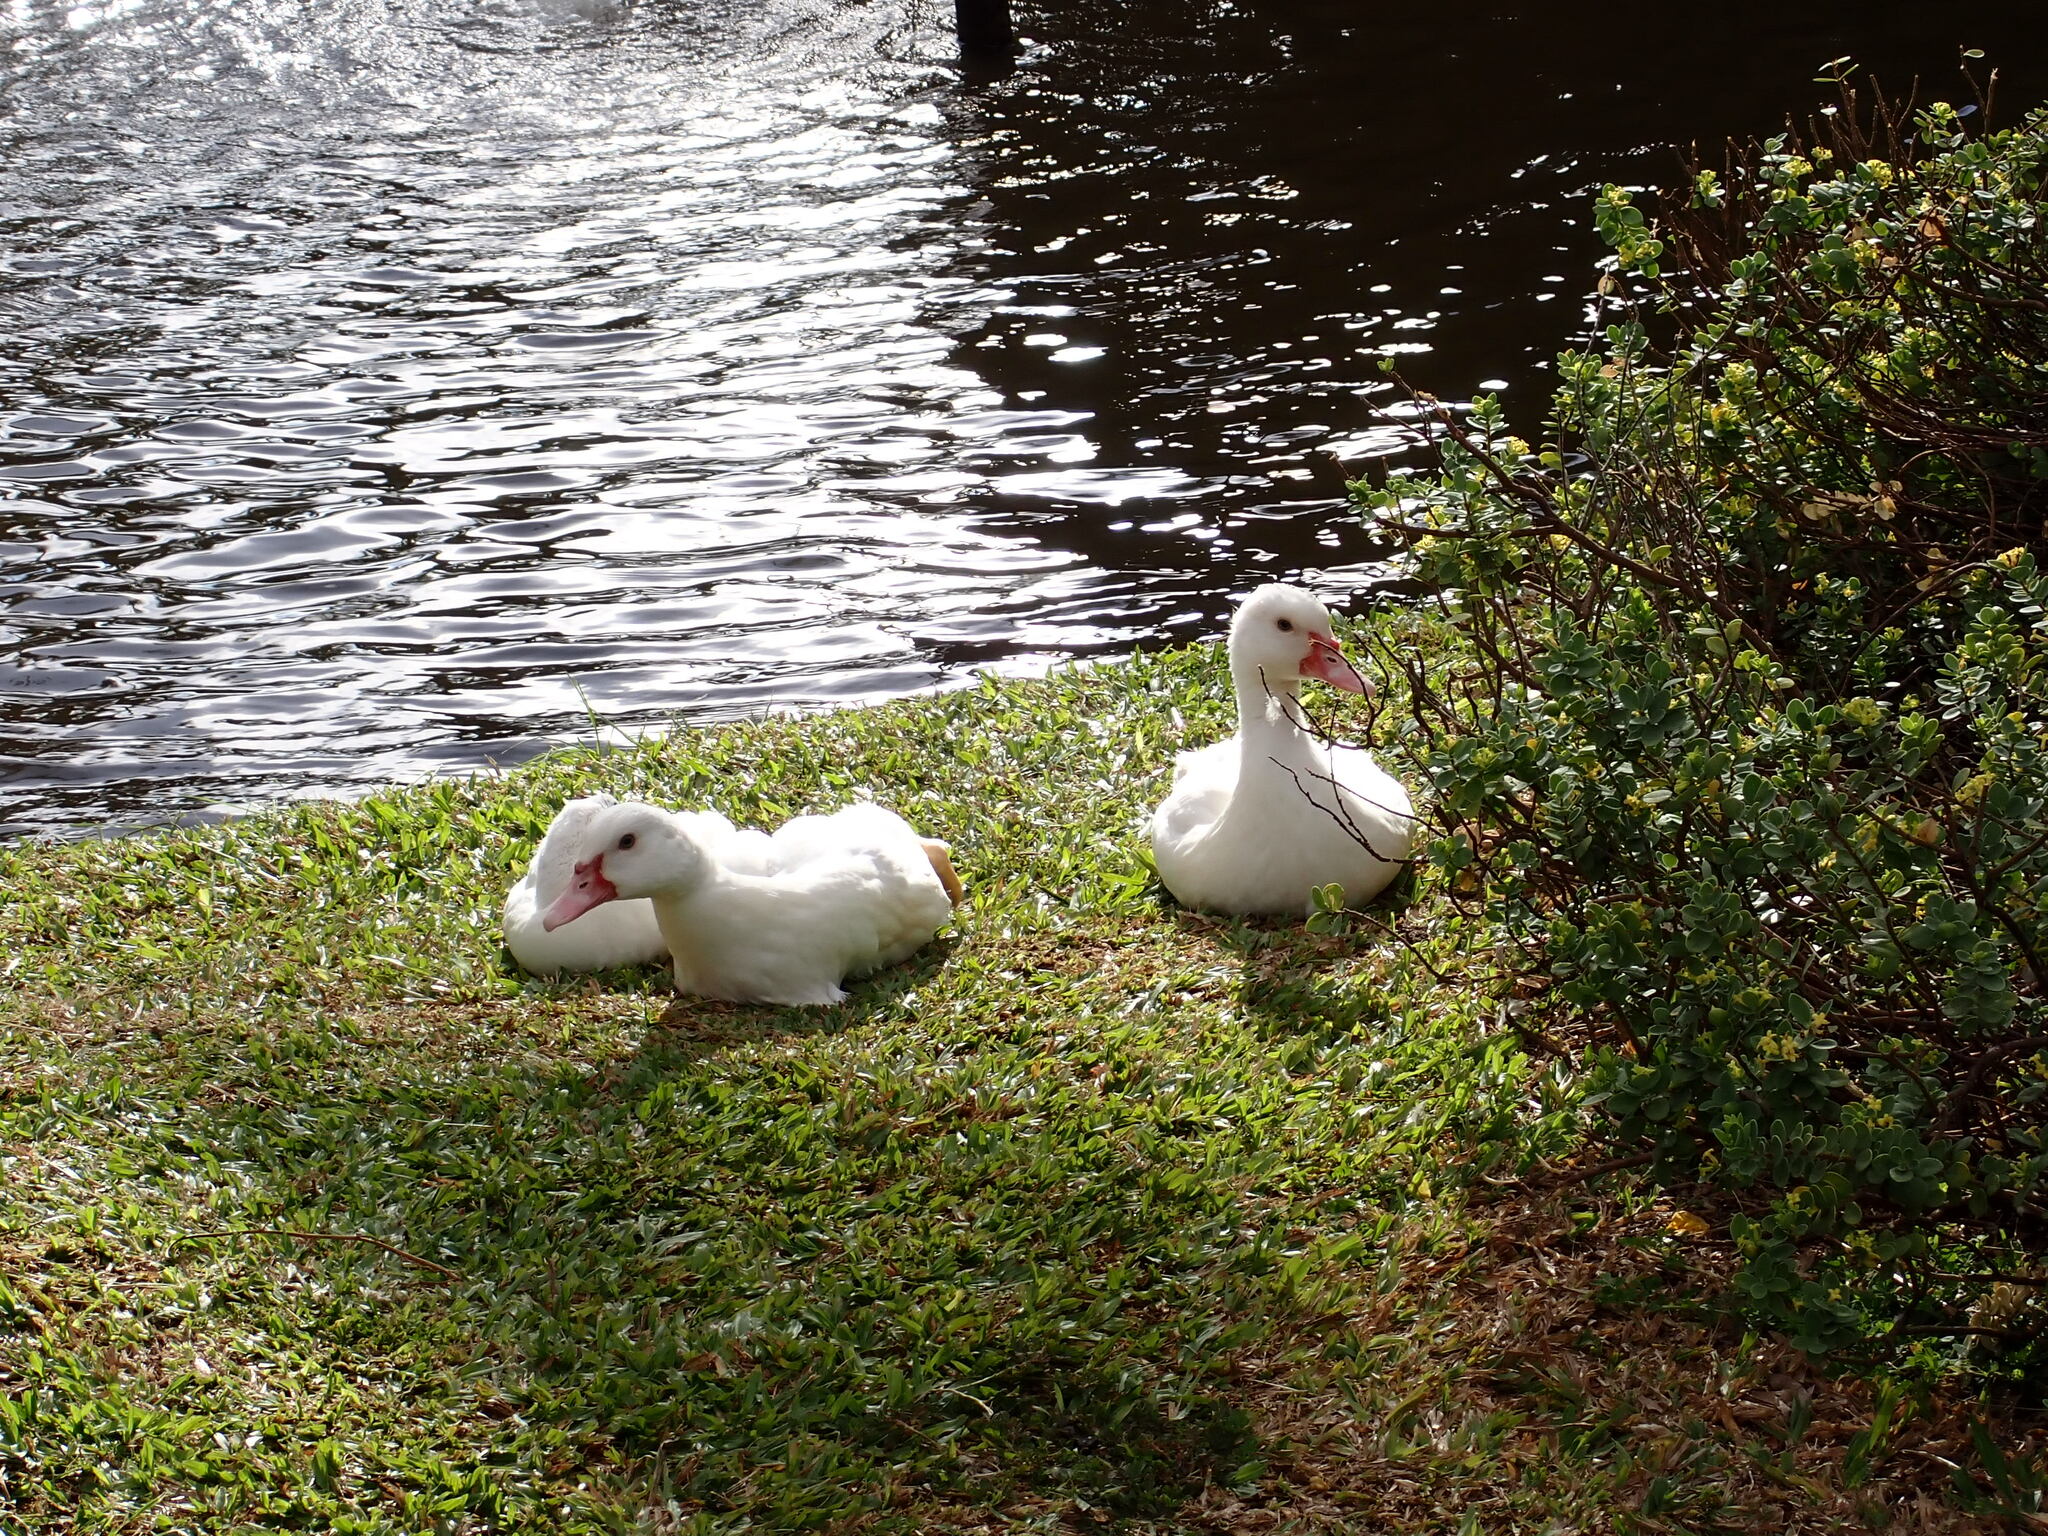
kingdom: Animalia
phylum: Chordata
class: Aves
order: Anseriformes
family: Anatidae
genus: Cairina
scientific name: Cairina moschata
